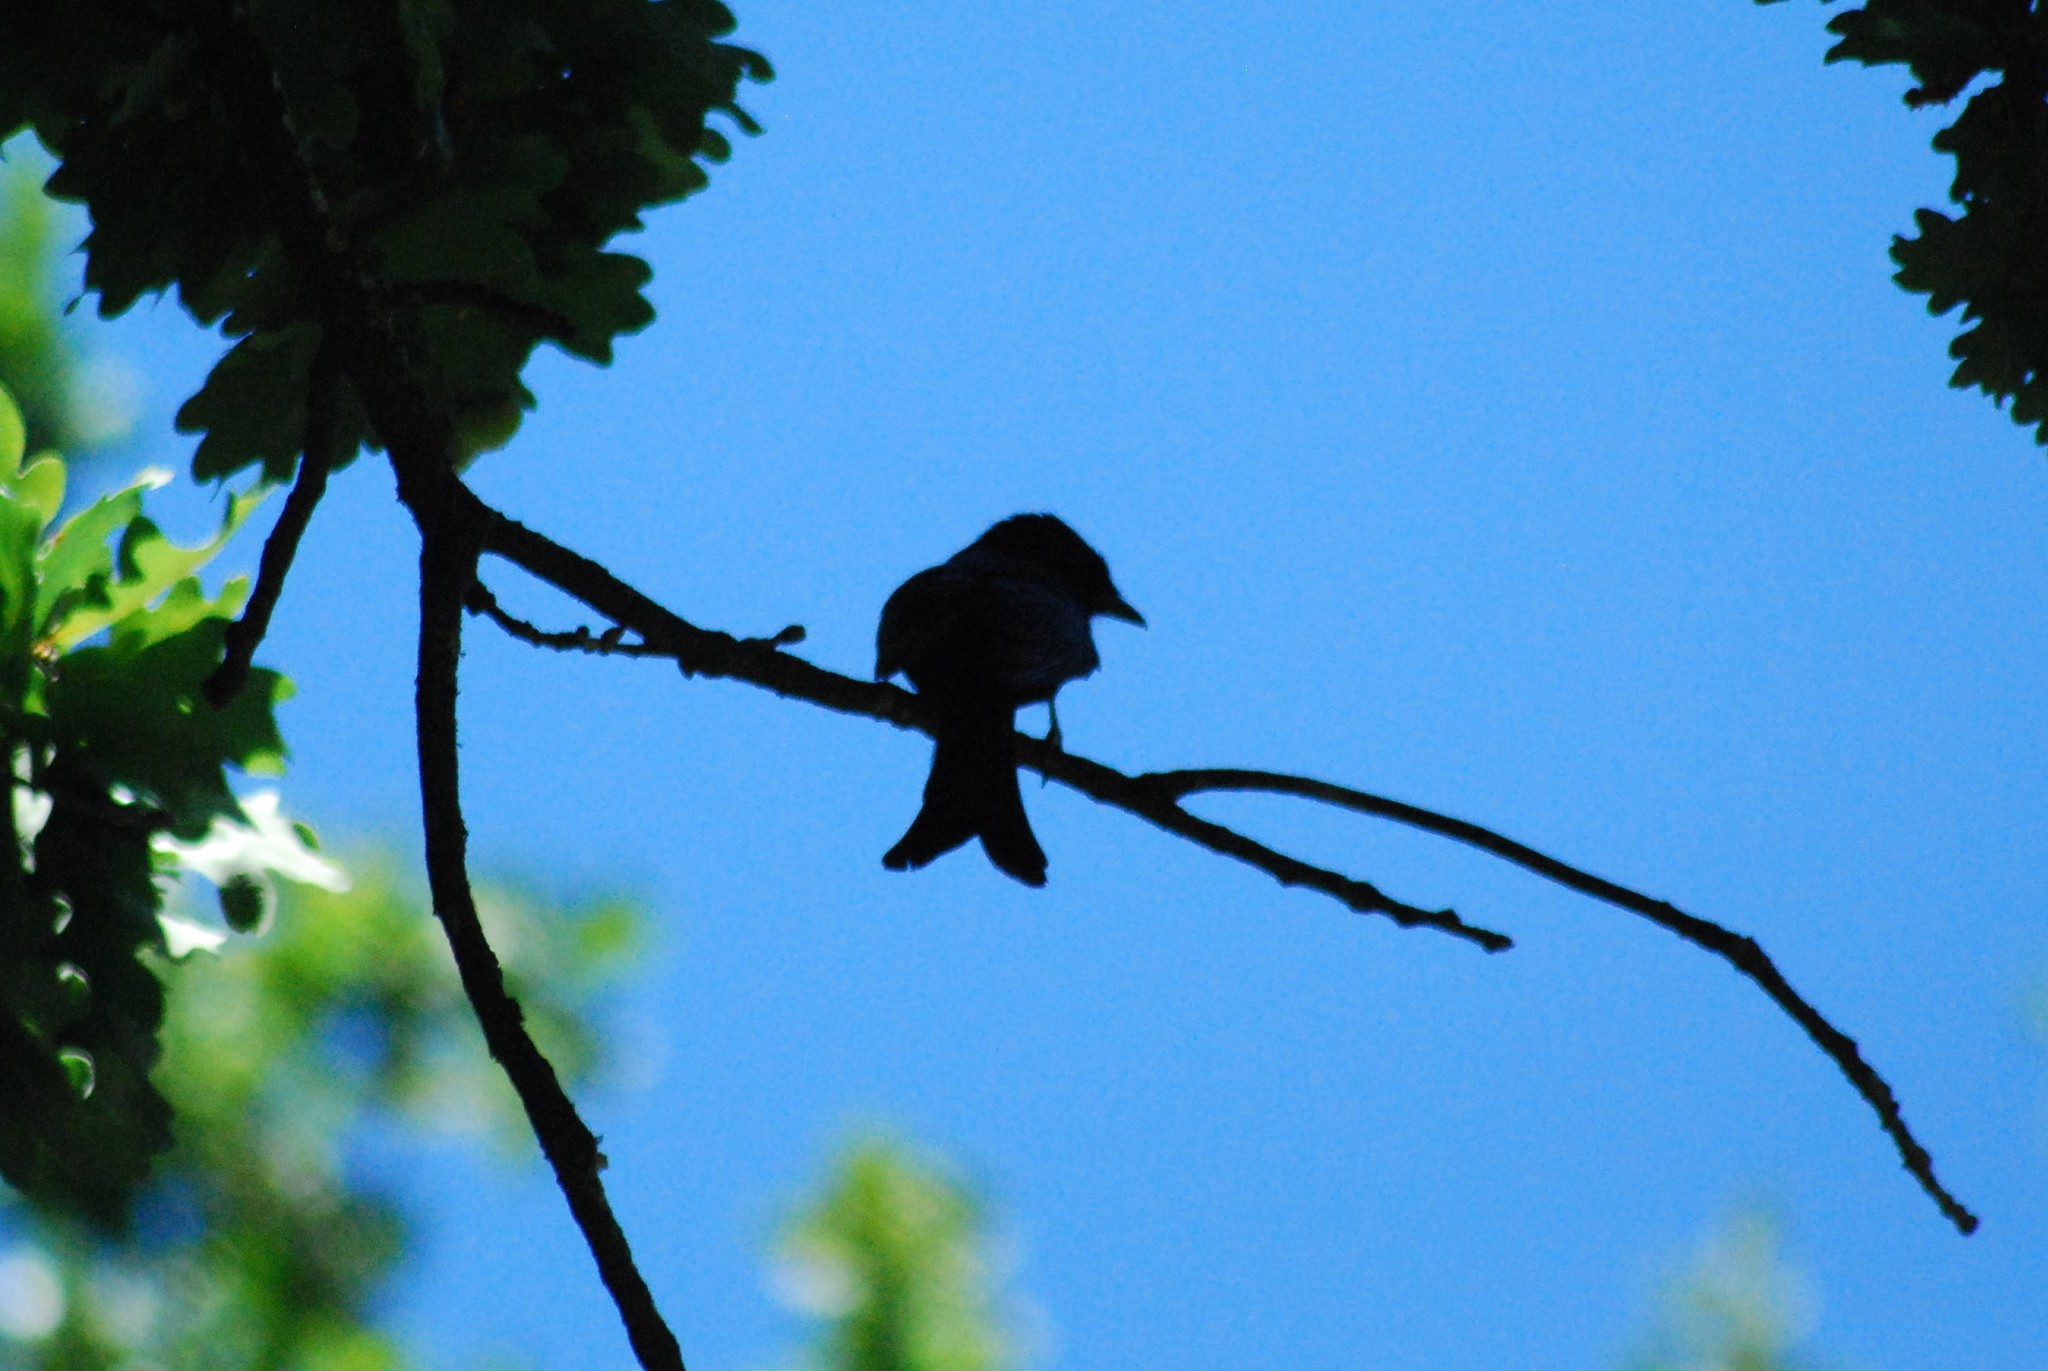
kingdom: Animalia
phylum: Chordata
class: Aves
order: Passeriformes
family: Dicruridae
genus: Dicrurus
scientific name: Dicrurus adsimilis
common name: Fork-tailed drongo
